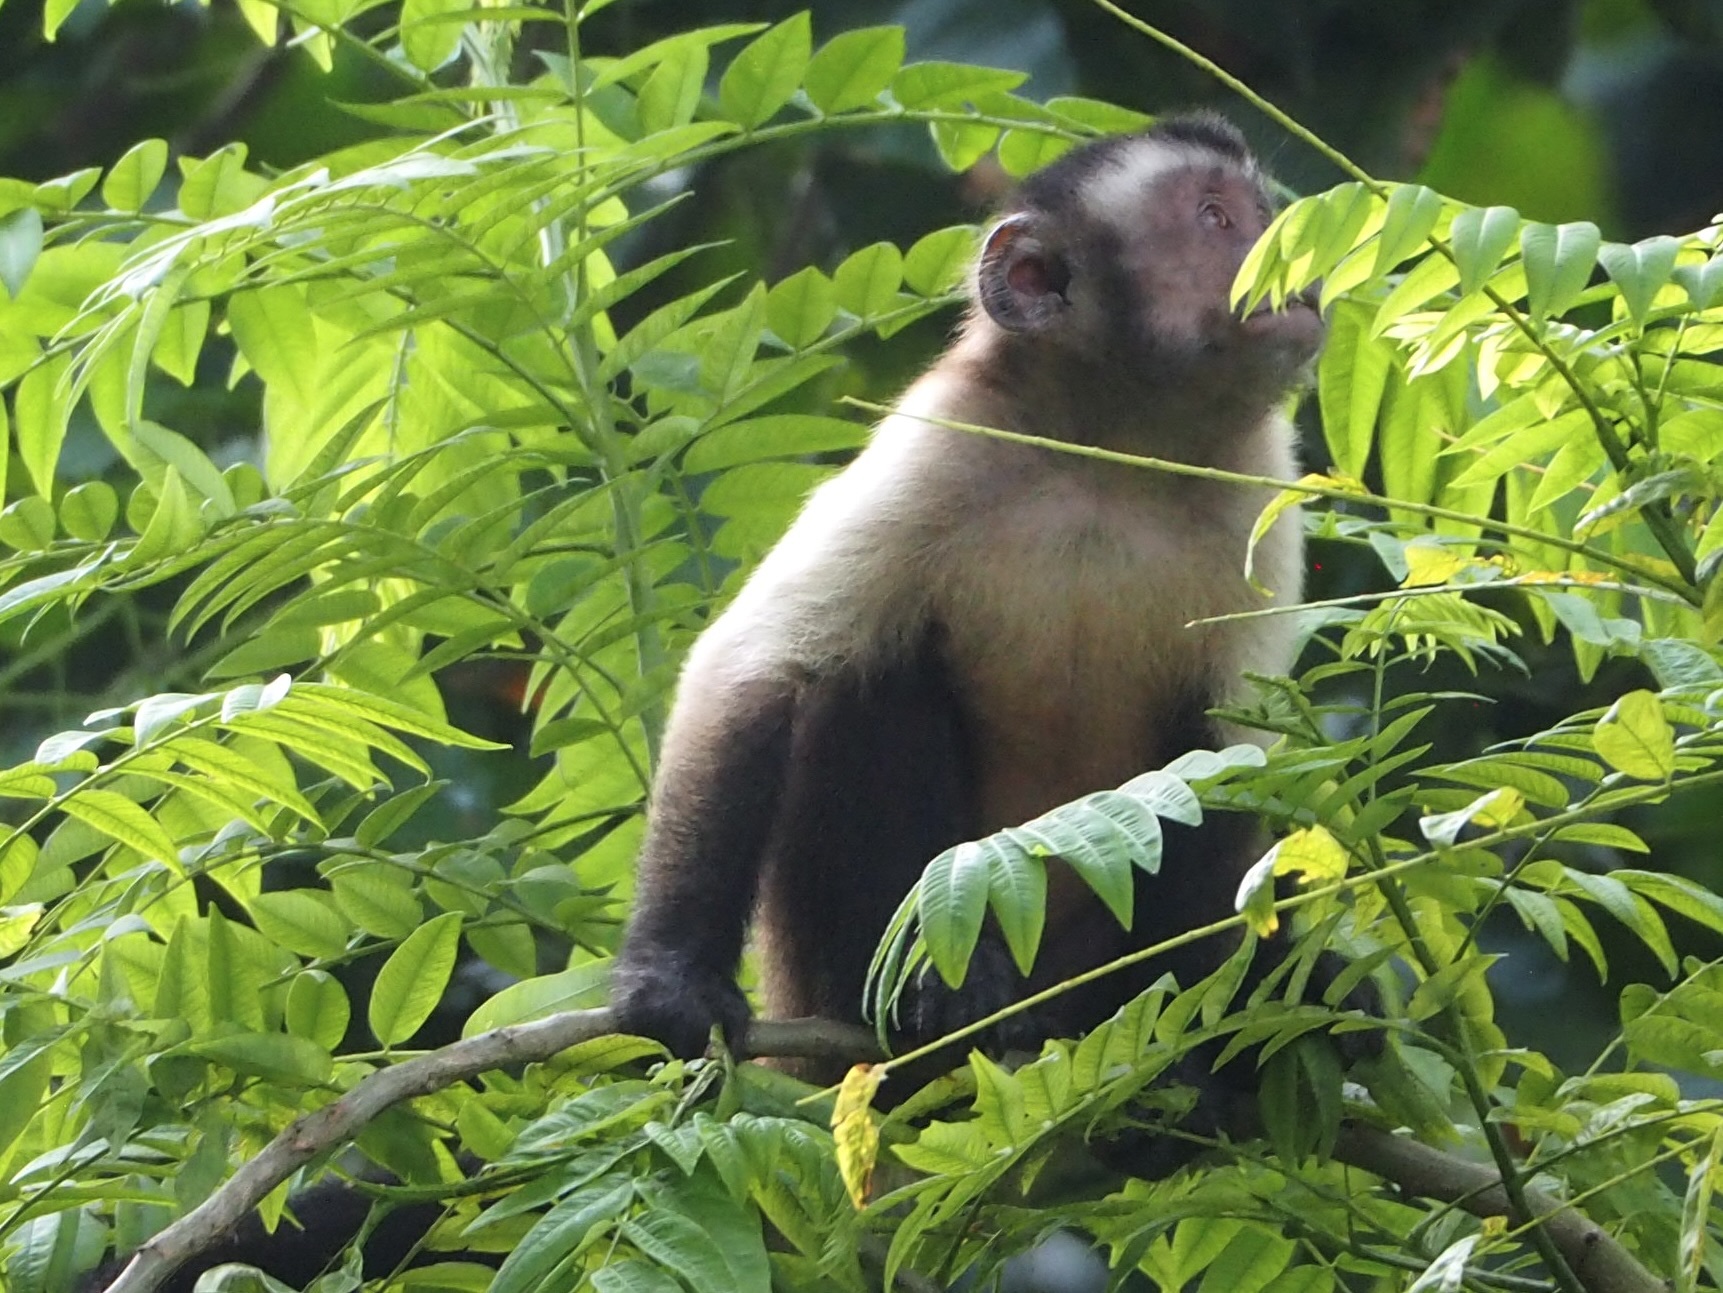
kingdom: Animalia
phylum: Chordata
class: Mammalia
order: Primates
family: Cebidae
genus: Sapajus
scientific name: Sapajus apella
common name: Tufted capuchin
